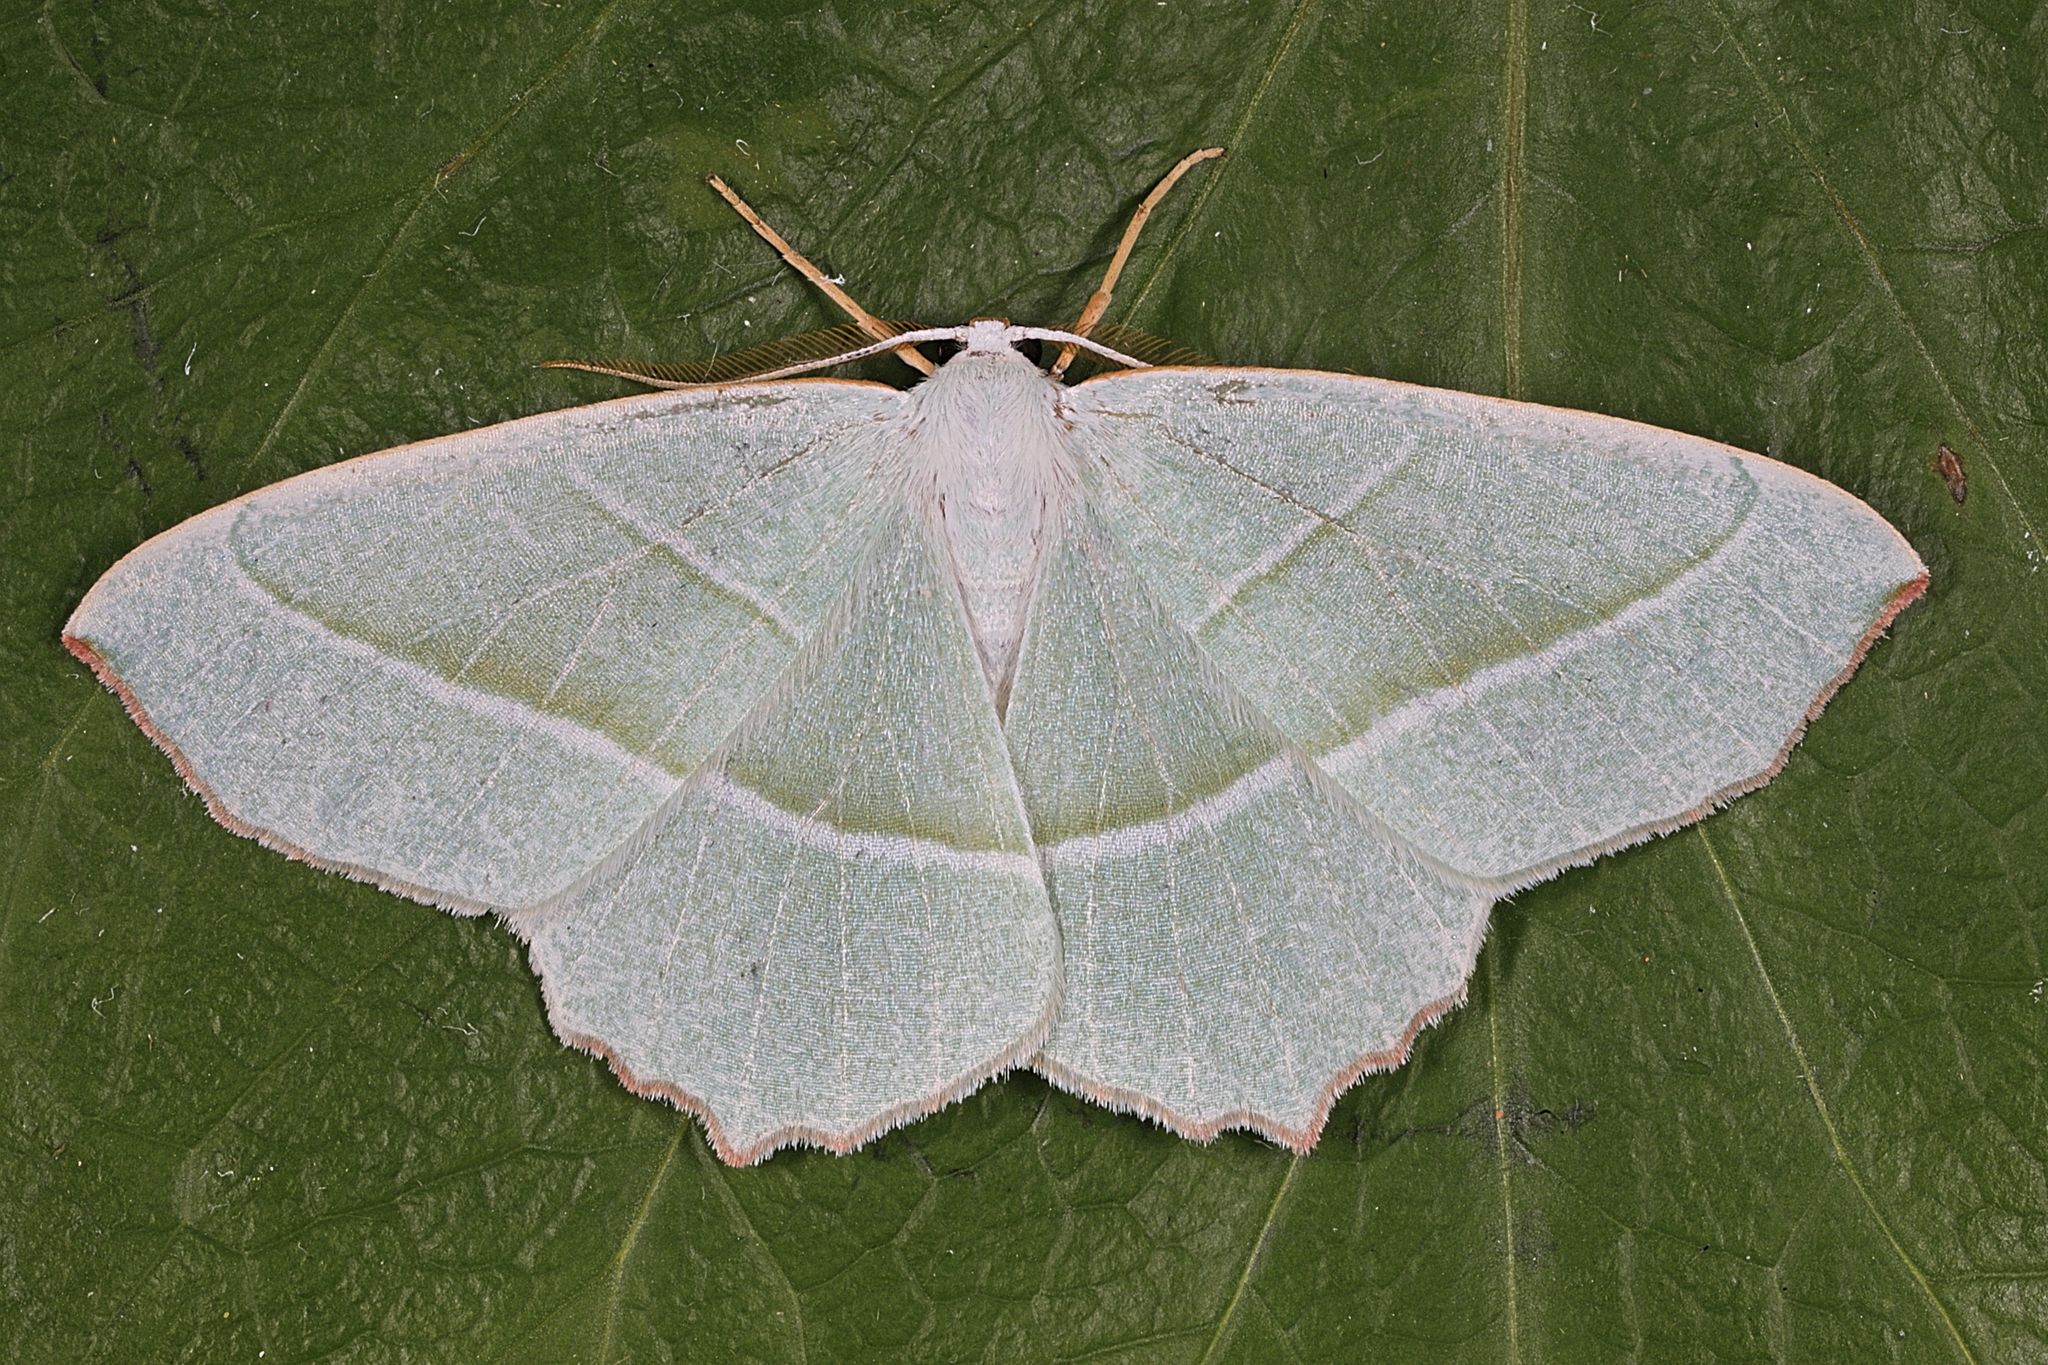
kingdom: Animalia
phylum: Arthropoda
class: Insecta
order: Lepidoptera
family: Geometridae
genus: Campaea
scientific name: Campaea margaritaria
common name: Light emerald
